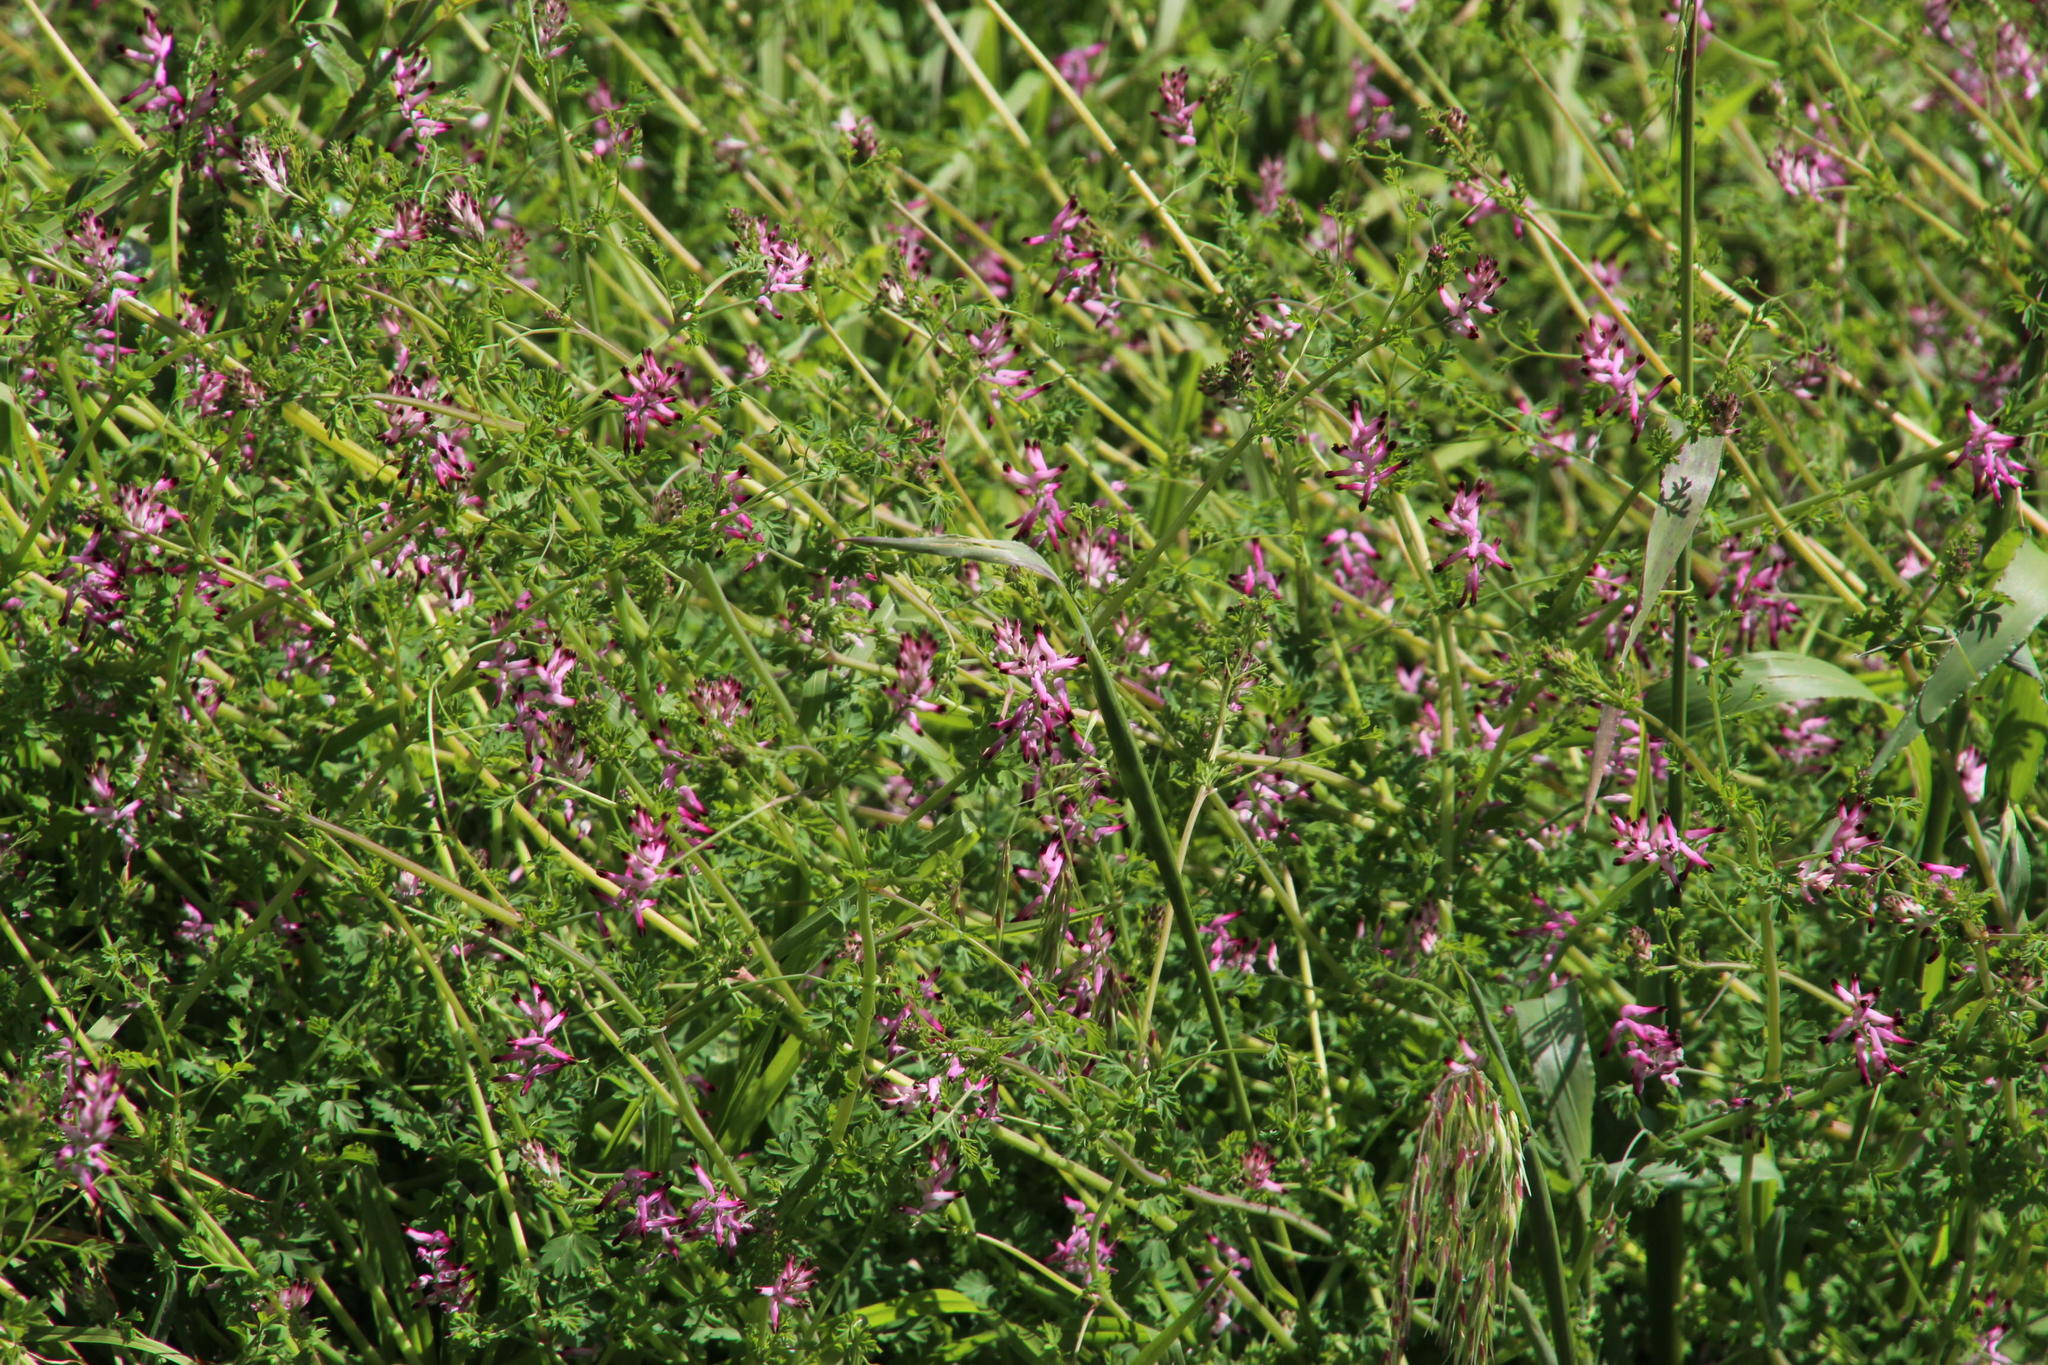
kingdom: Plantae
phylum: Tracheophyta
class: Magnoliopsida
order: Ranunculales
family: Papaveraceae
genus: Fumaria
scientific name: Fumaria muralis
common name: Common ramping-fumitory
